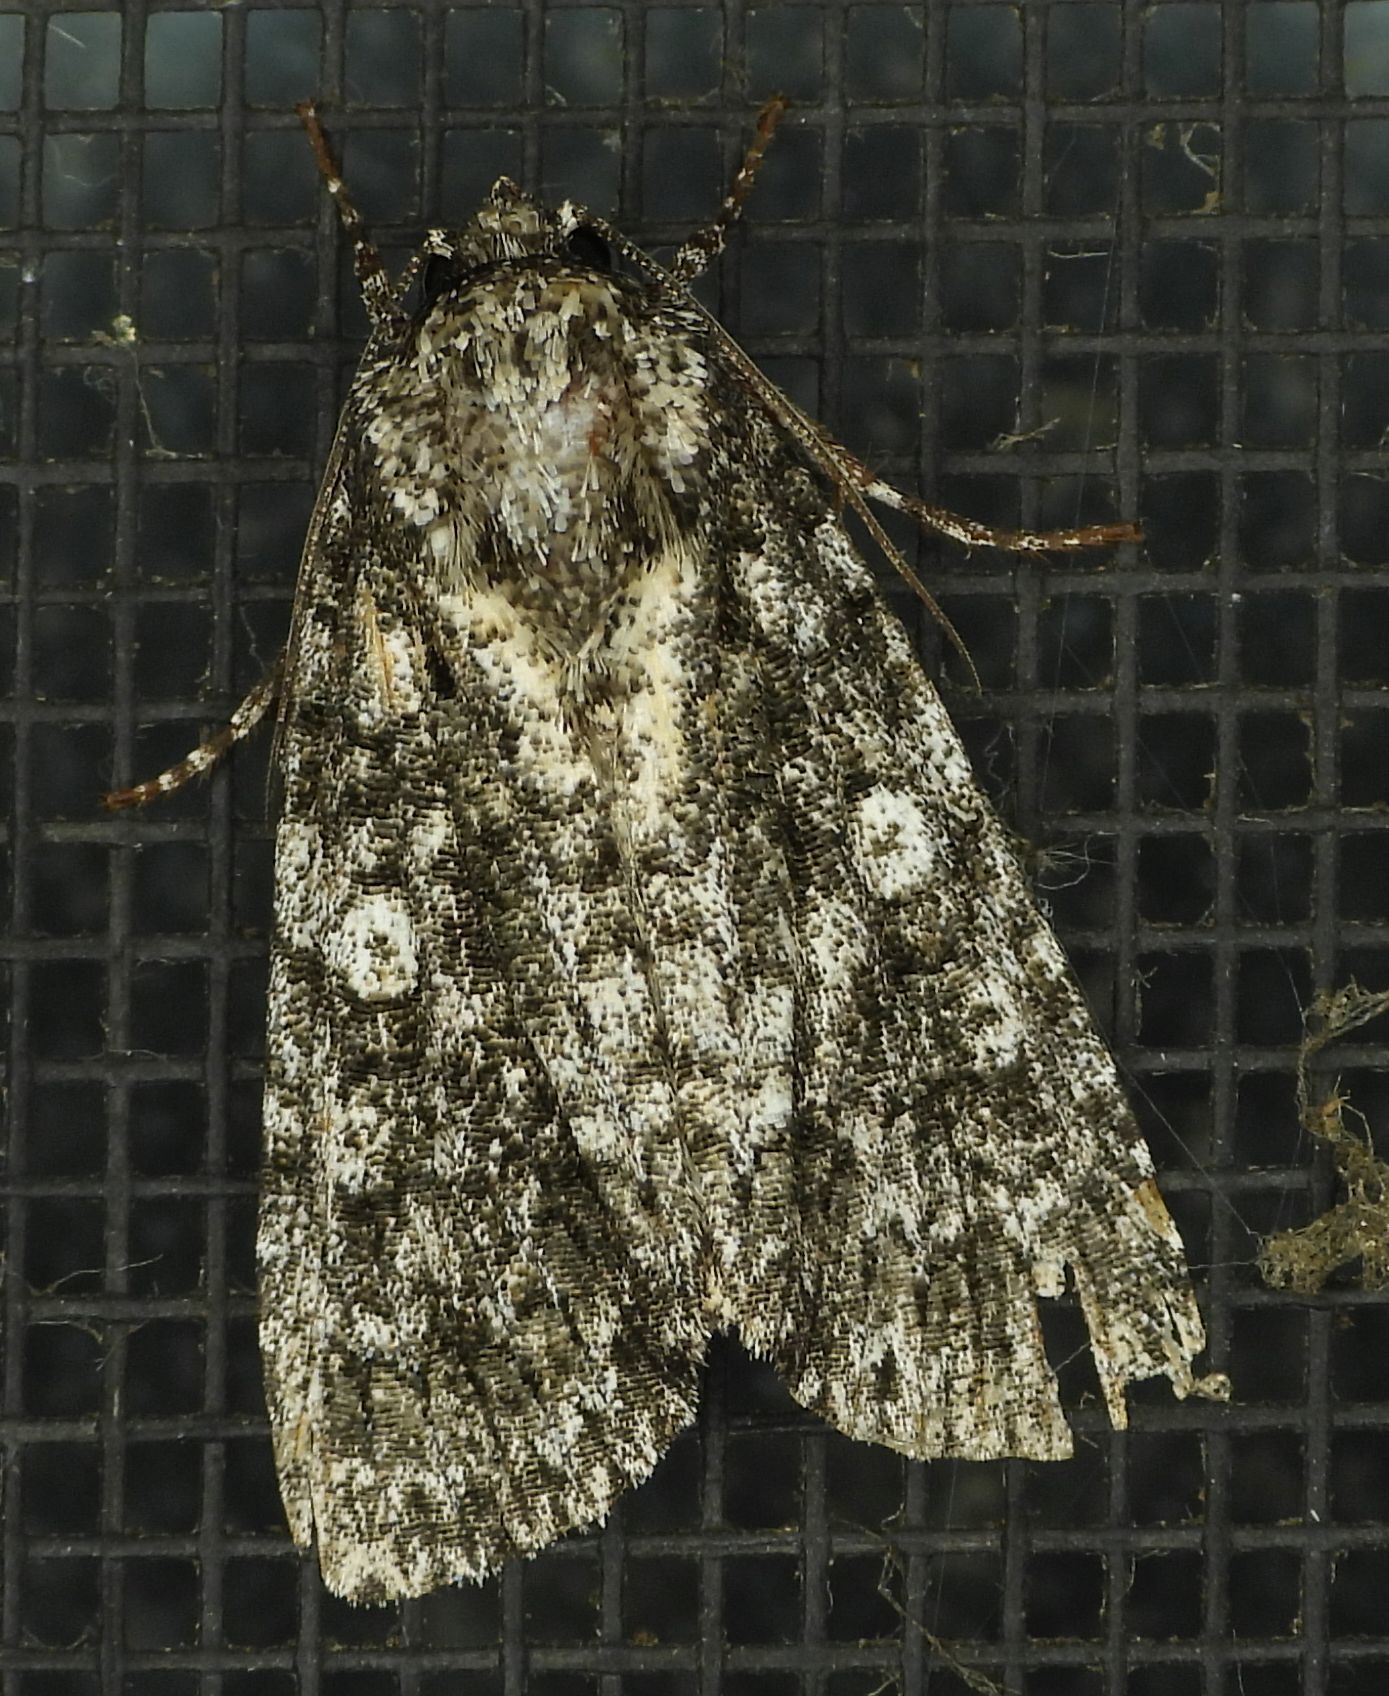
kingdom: Animalia
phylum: Arthropoda
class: Insecta
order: Lepidoptera
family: Noctuidae
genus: Acronicta
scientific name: Acronicta afflicta
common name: Afflicted dagger moth
